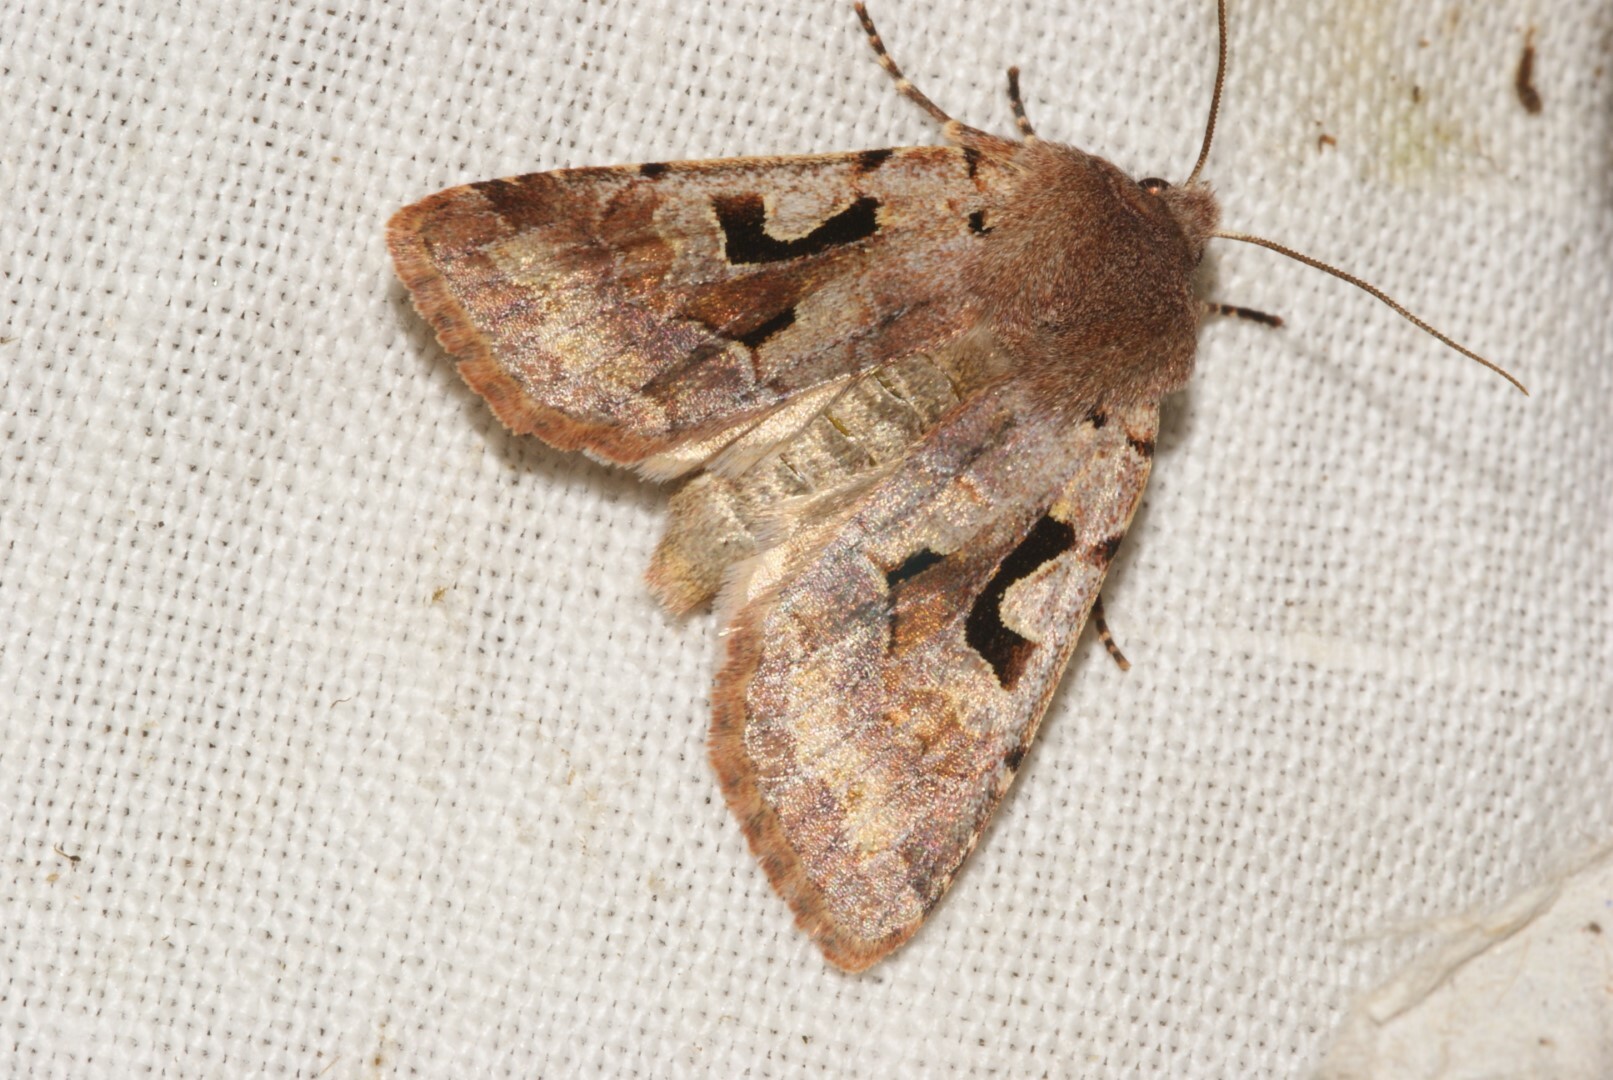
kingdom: Animalia
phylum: Arthropoda
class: Insecta
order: Lepidoptera
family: Noctuidae
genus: Orthosia
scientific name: Orthosia gothica
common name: Hebrew character
